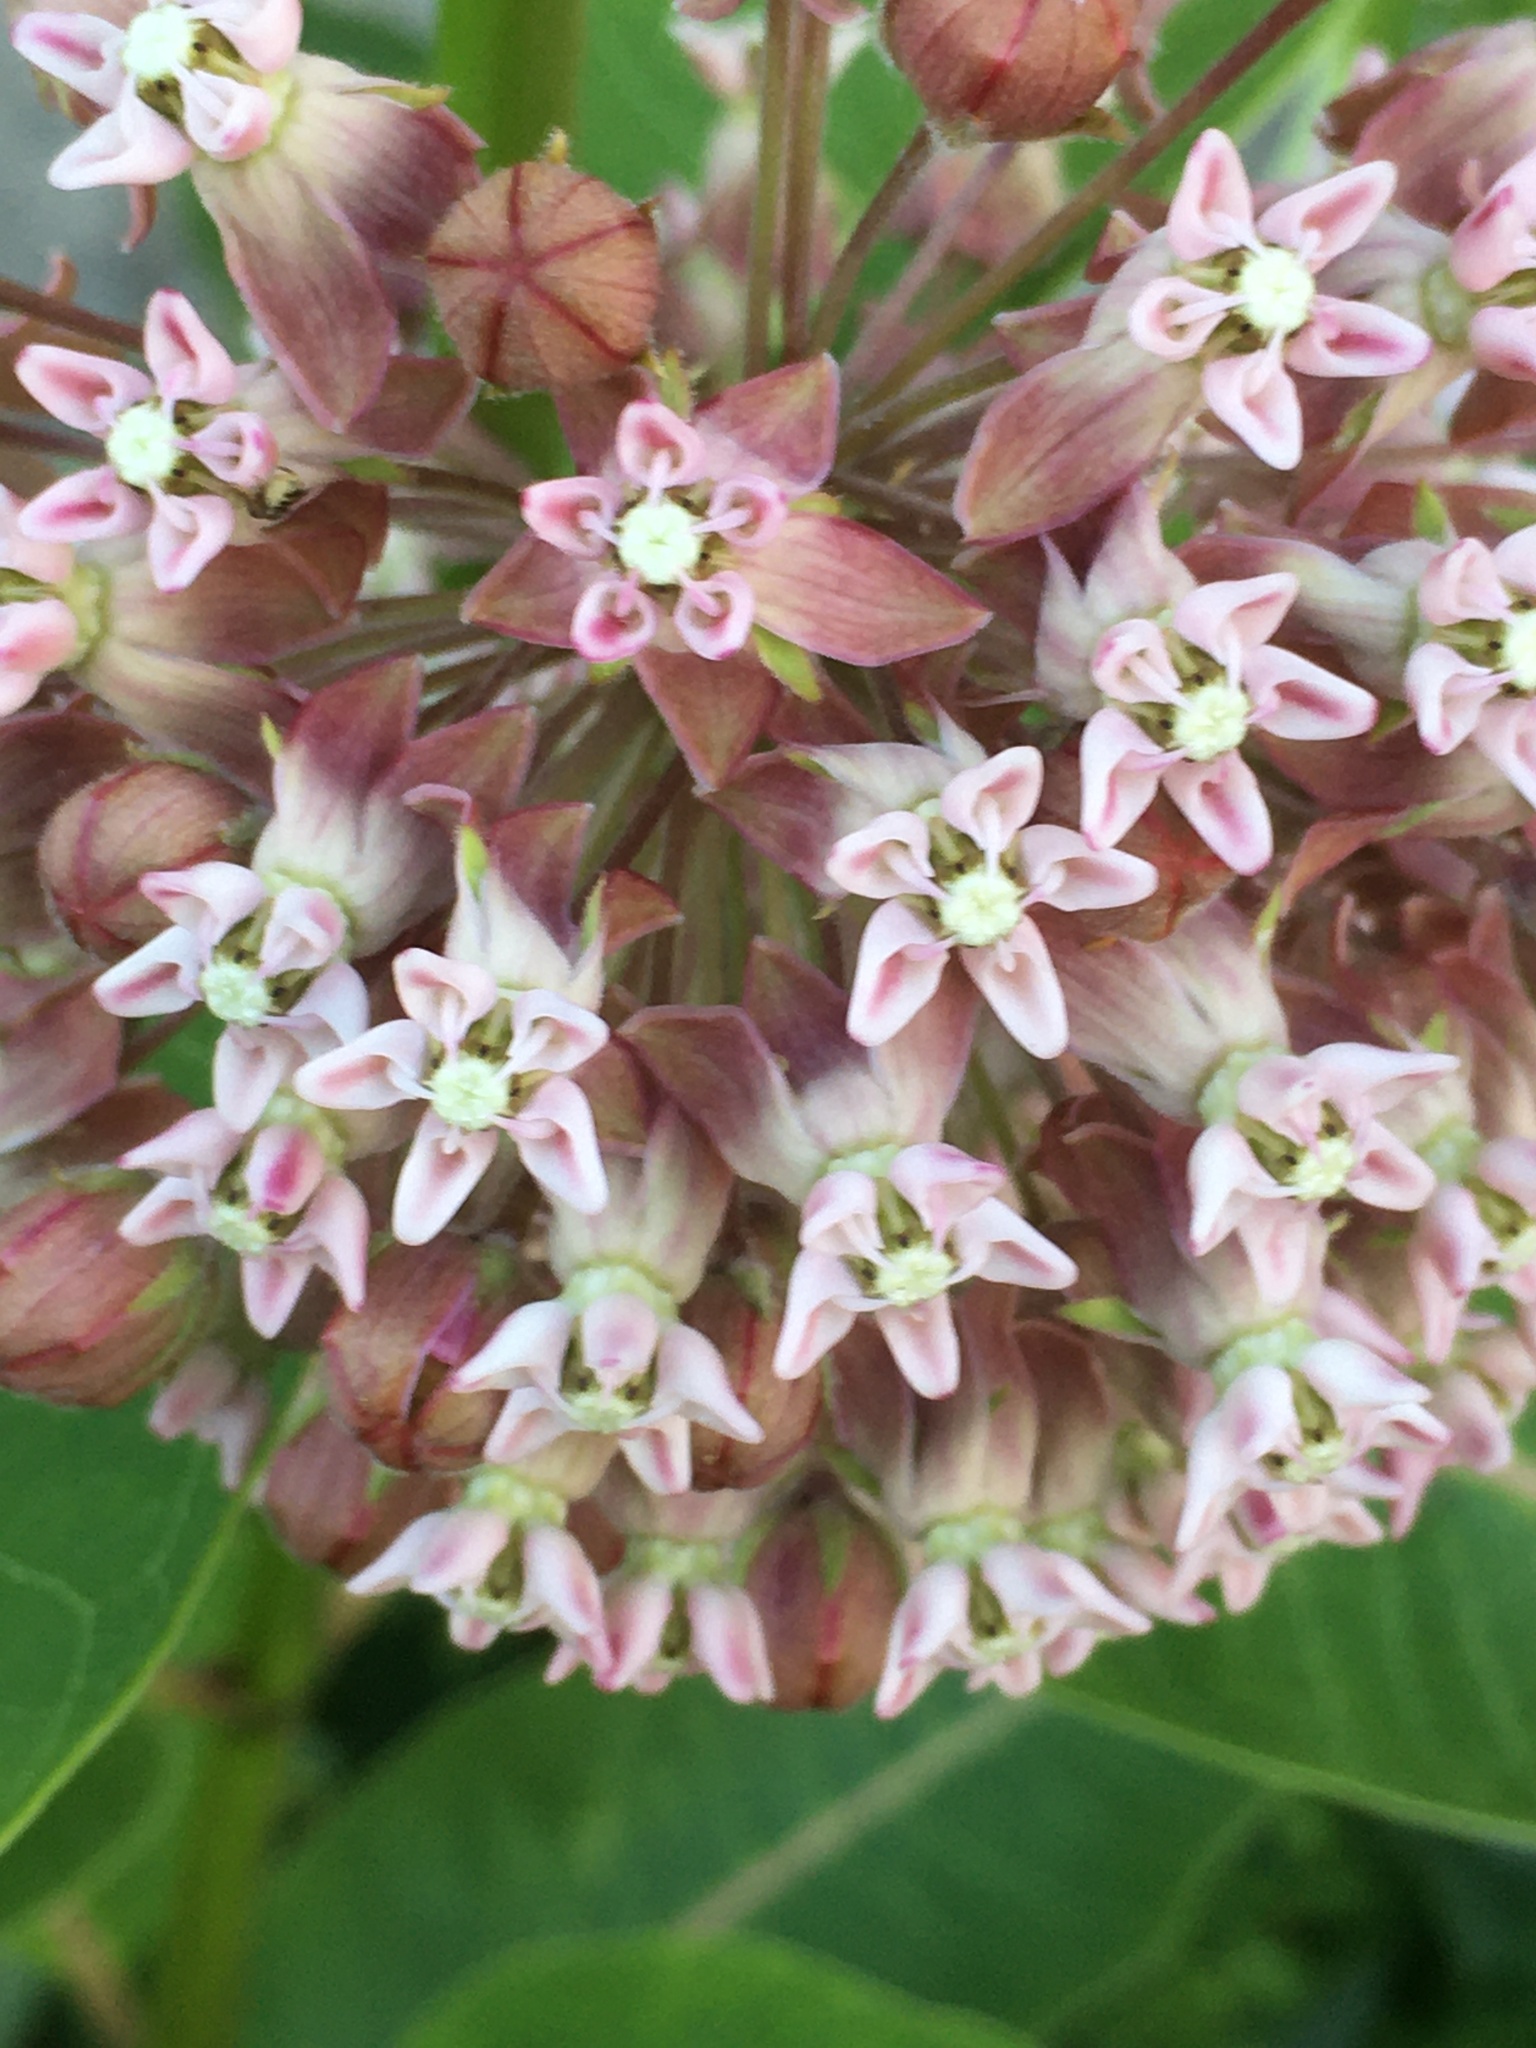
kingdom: Plantae
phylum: Tracheophyta
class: Magnoliopsida
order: Gentianales
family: Apocynaceae
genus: Asclepias
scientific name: Asclepias syriaca
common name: Common milkweed
